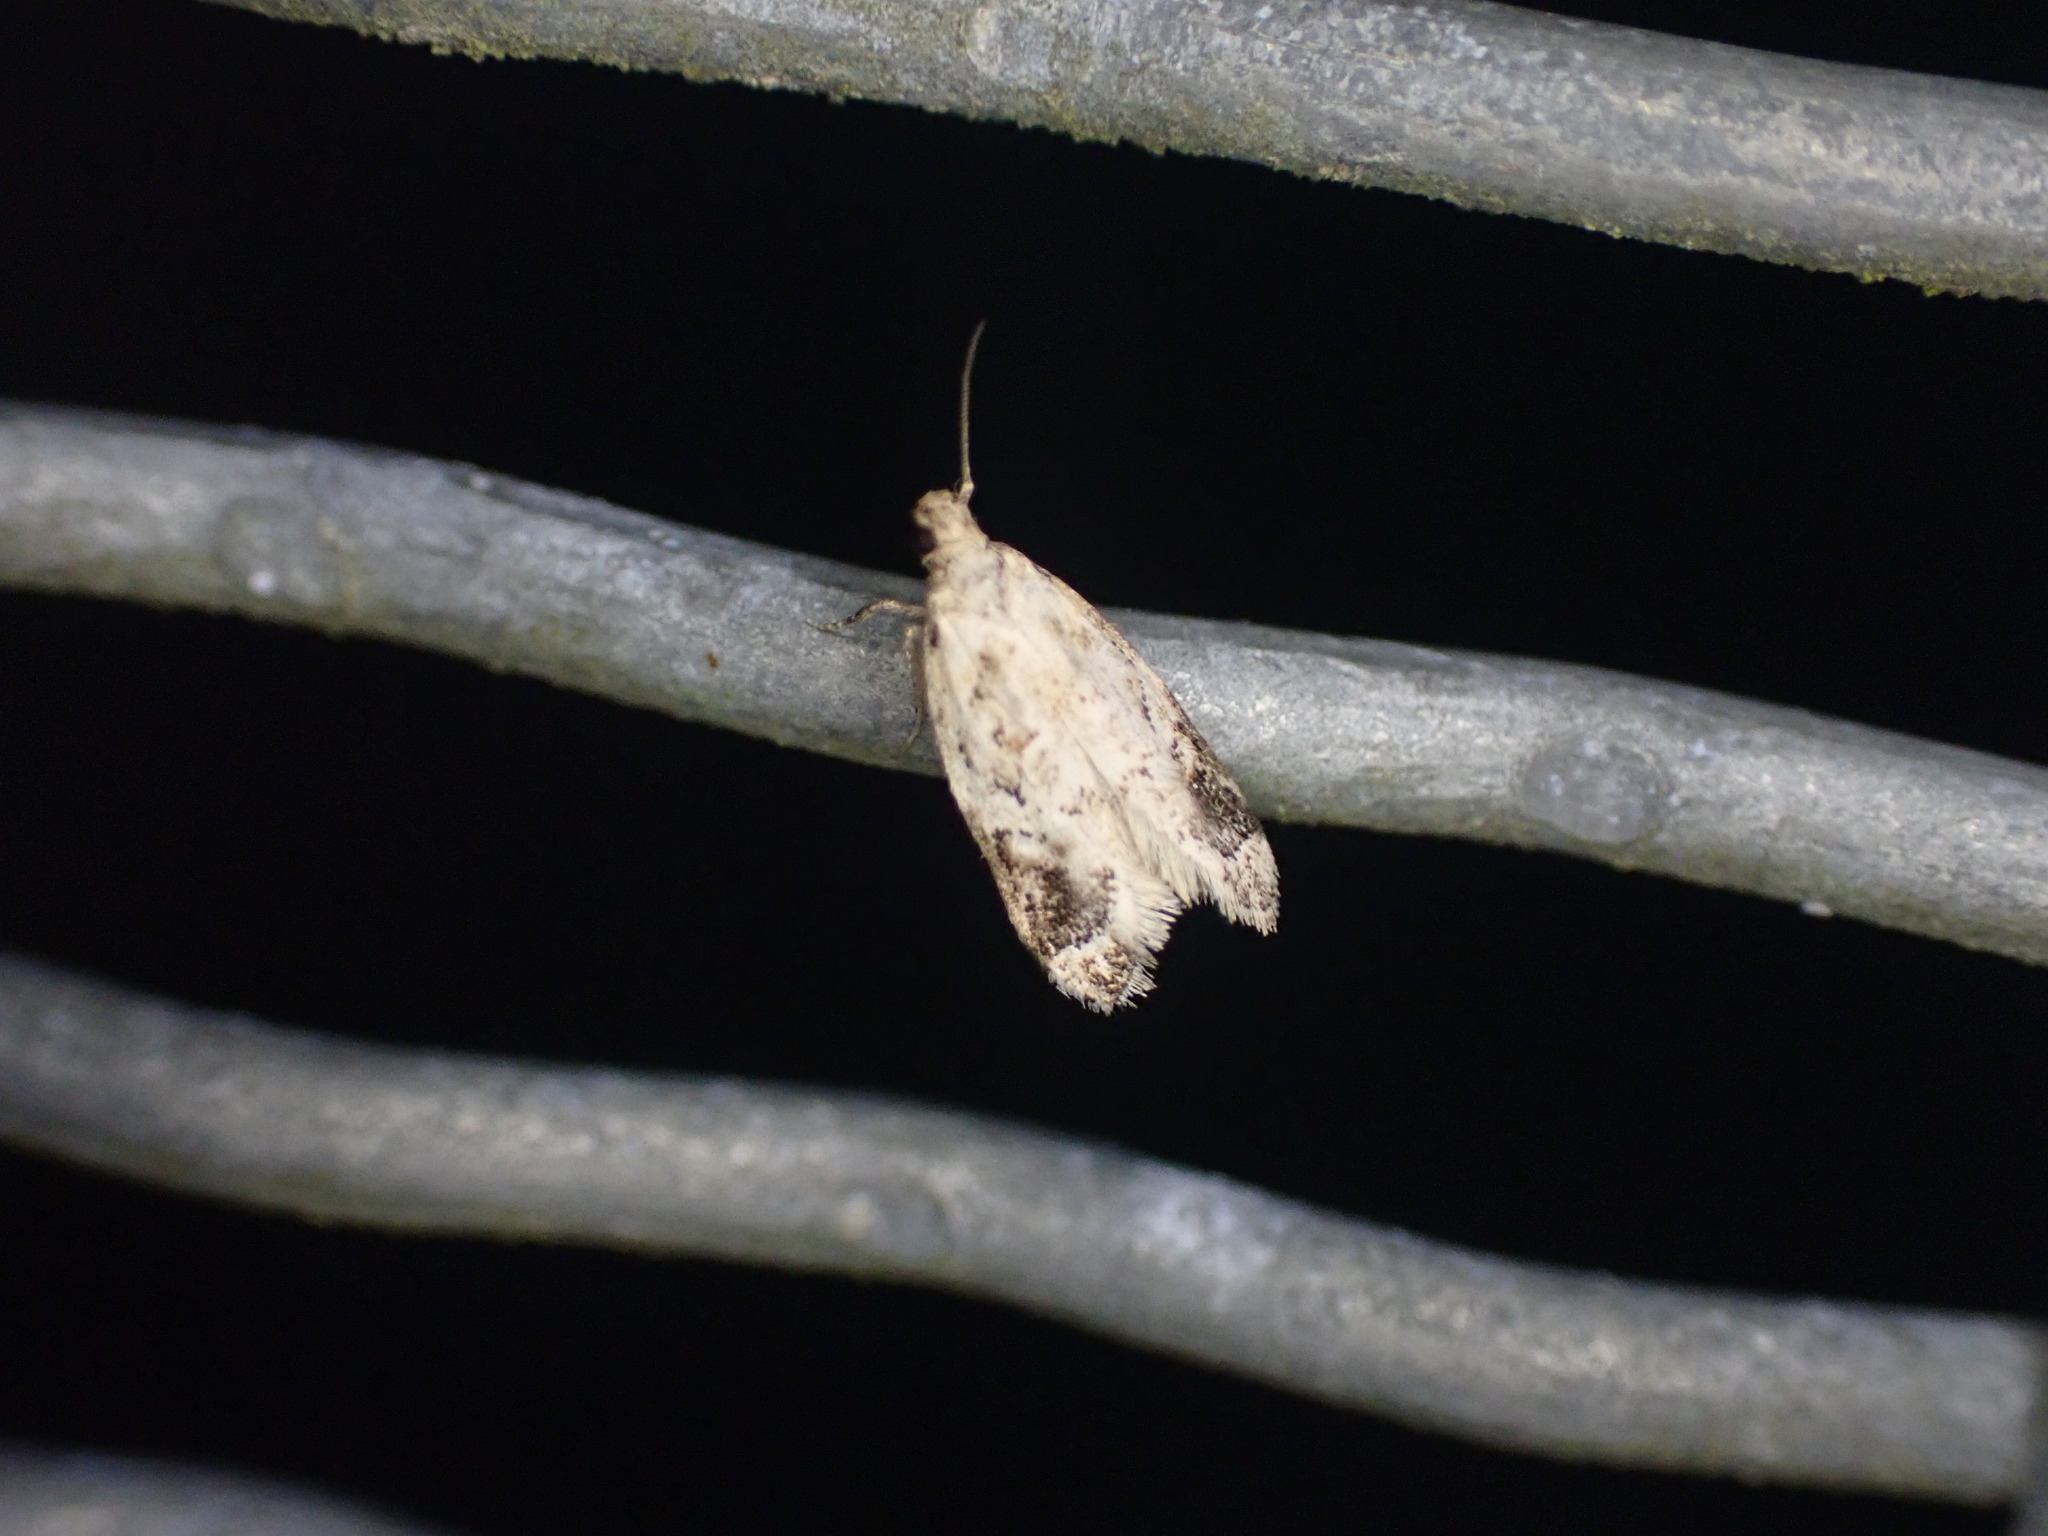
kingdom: Animalia
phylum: Arthropoda
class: Insecta
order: Lepidoptera
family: Oecophoridae
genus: Trachypepla
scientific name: Trachypepla aspidephora
